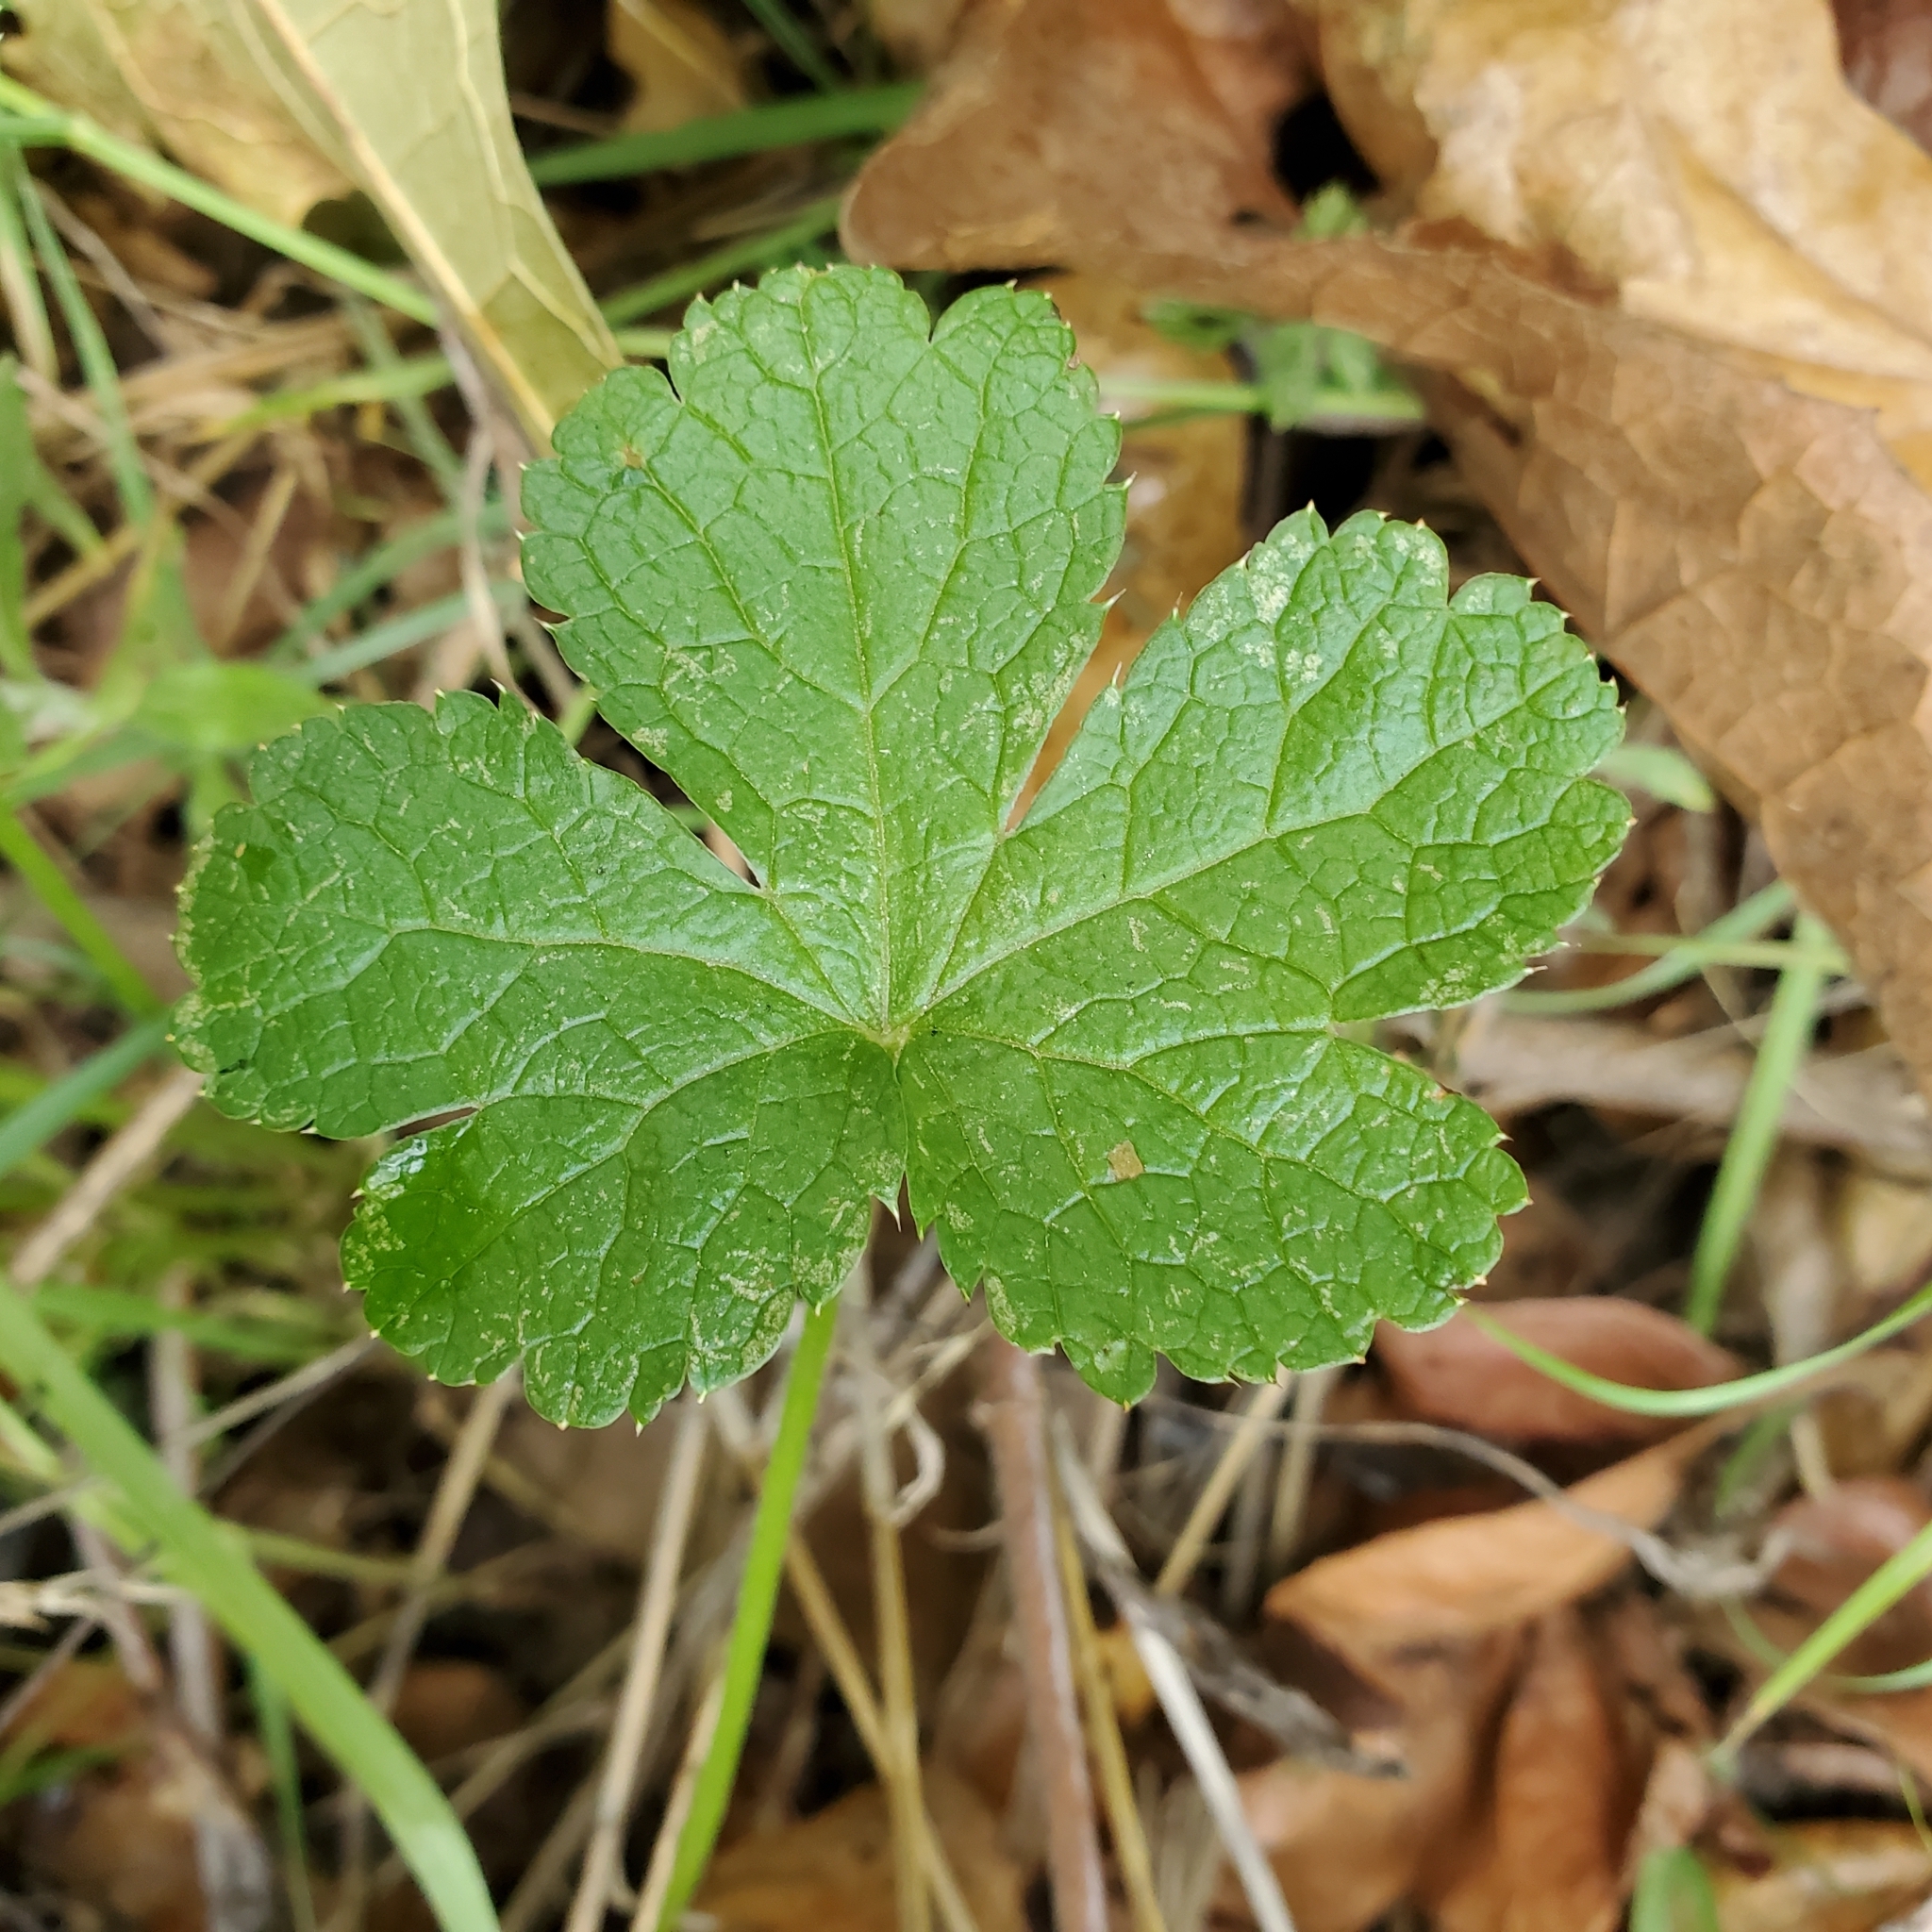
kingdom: Plantae
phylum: Tracheophyta
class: Magnoliopsida
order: Apiales
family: Apiaceae
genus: Sanicula
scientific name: Sanicula crassicaulis
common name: Western snakeroot
